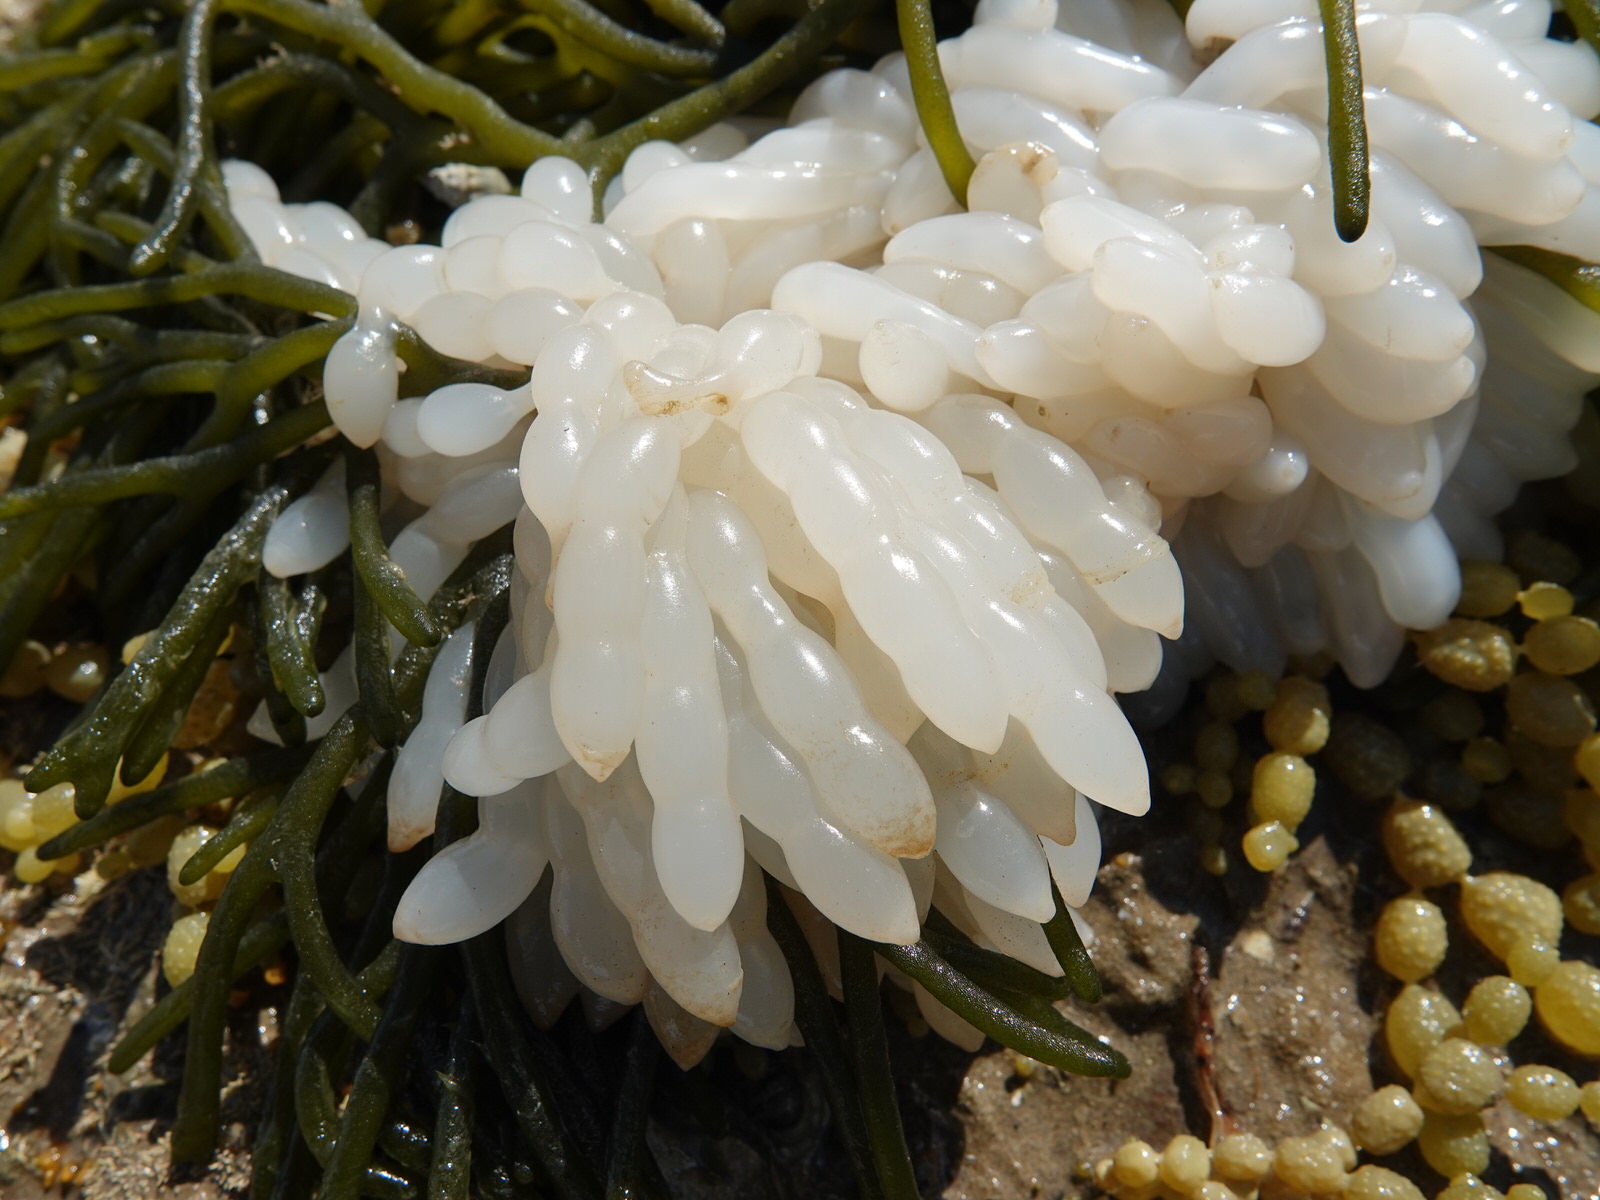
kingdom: Animalia
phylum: Mollusca
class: Cephalopoda
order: Myopsida
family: Loliginidae
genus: Sepioteuthis
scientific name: Sepioteuthis australis
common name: Southern reef squid
